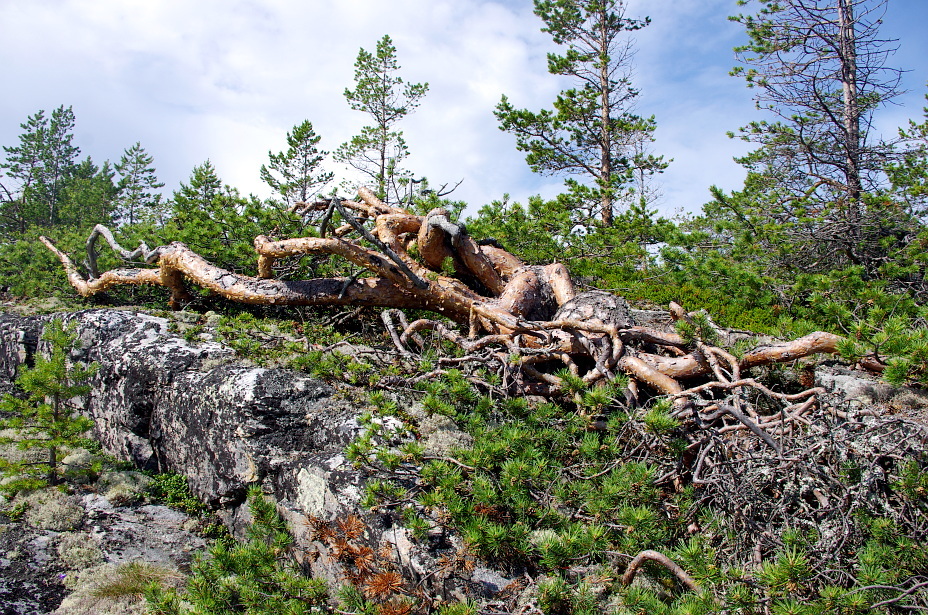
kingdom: Plantae
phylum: Tracheophyta
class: Pinopsida
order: Pinales
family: Pinaceae
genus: Pinus
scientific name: Pinus sylvestris
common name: Scots pine
